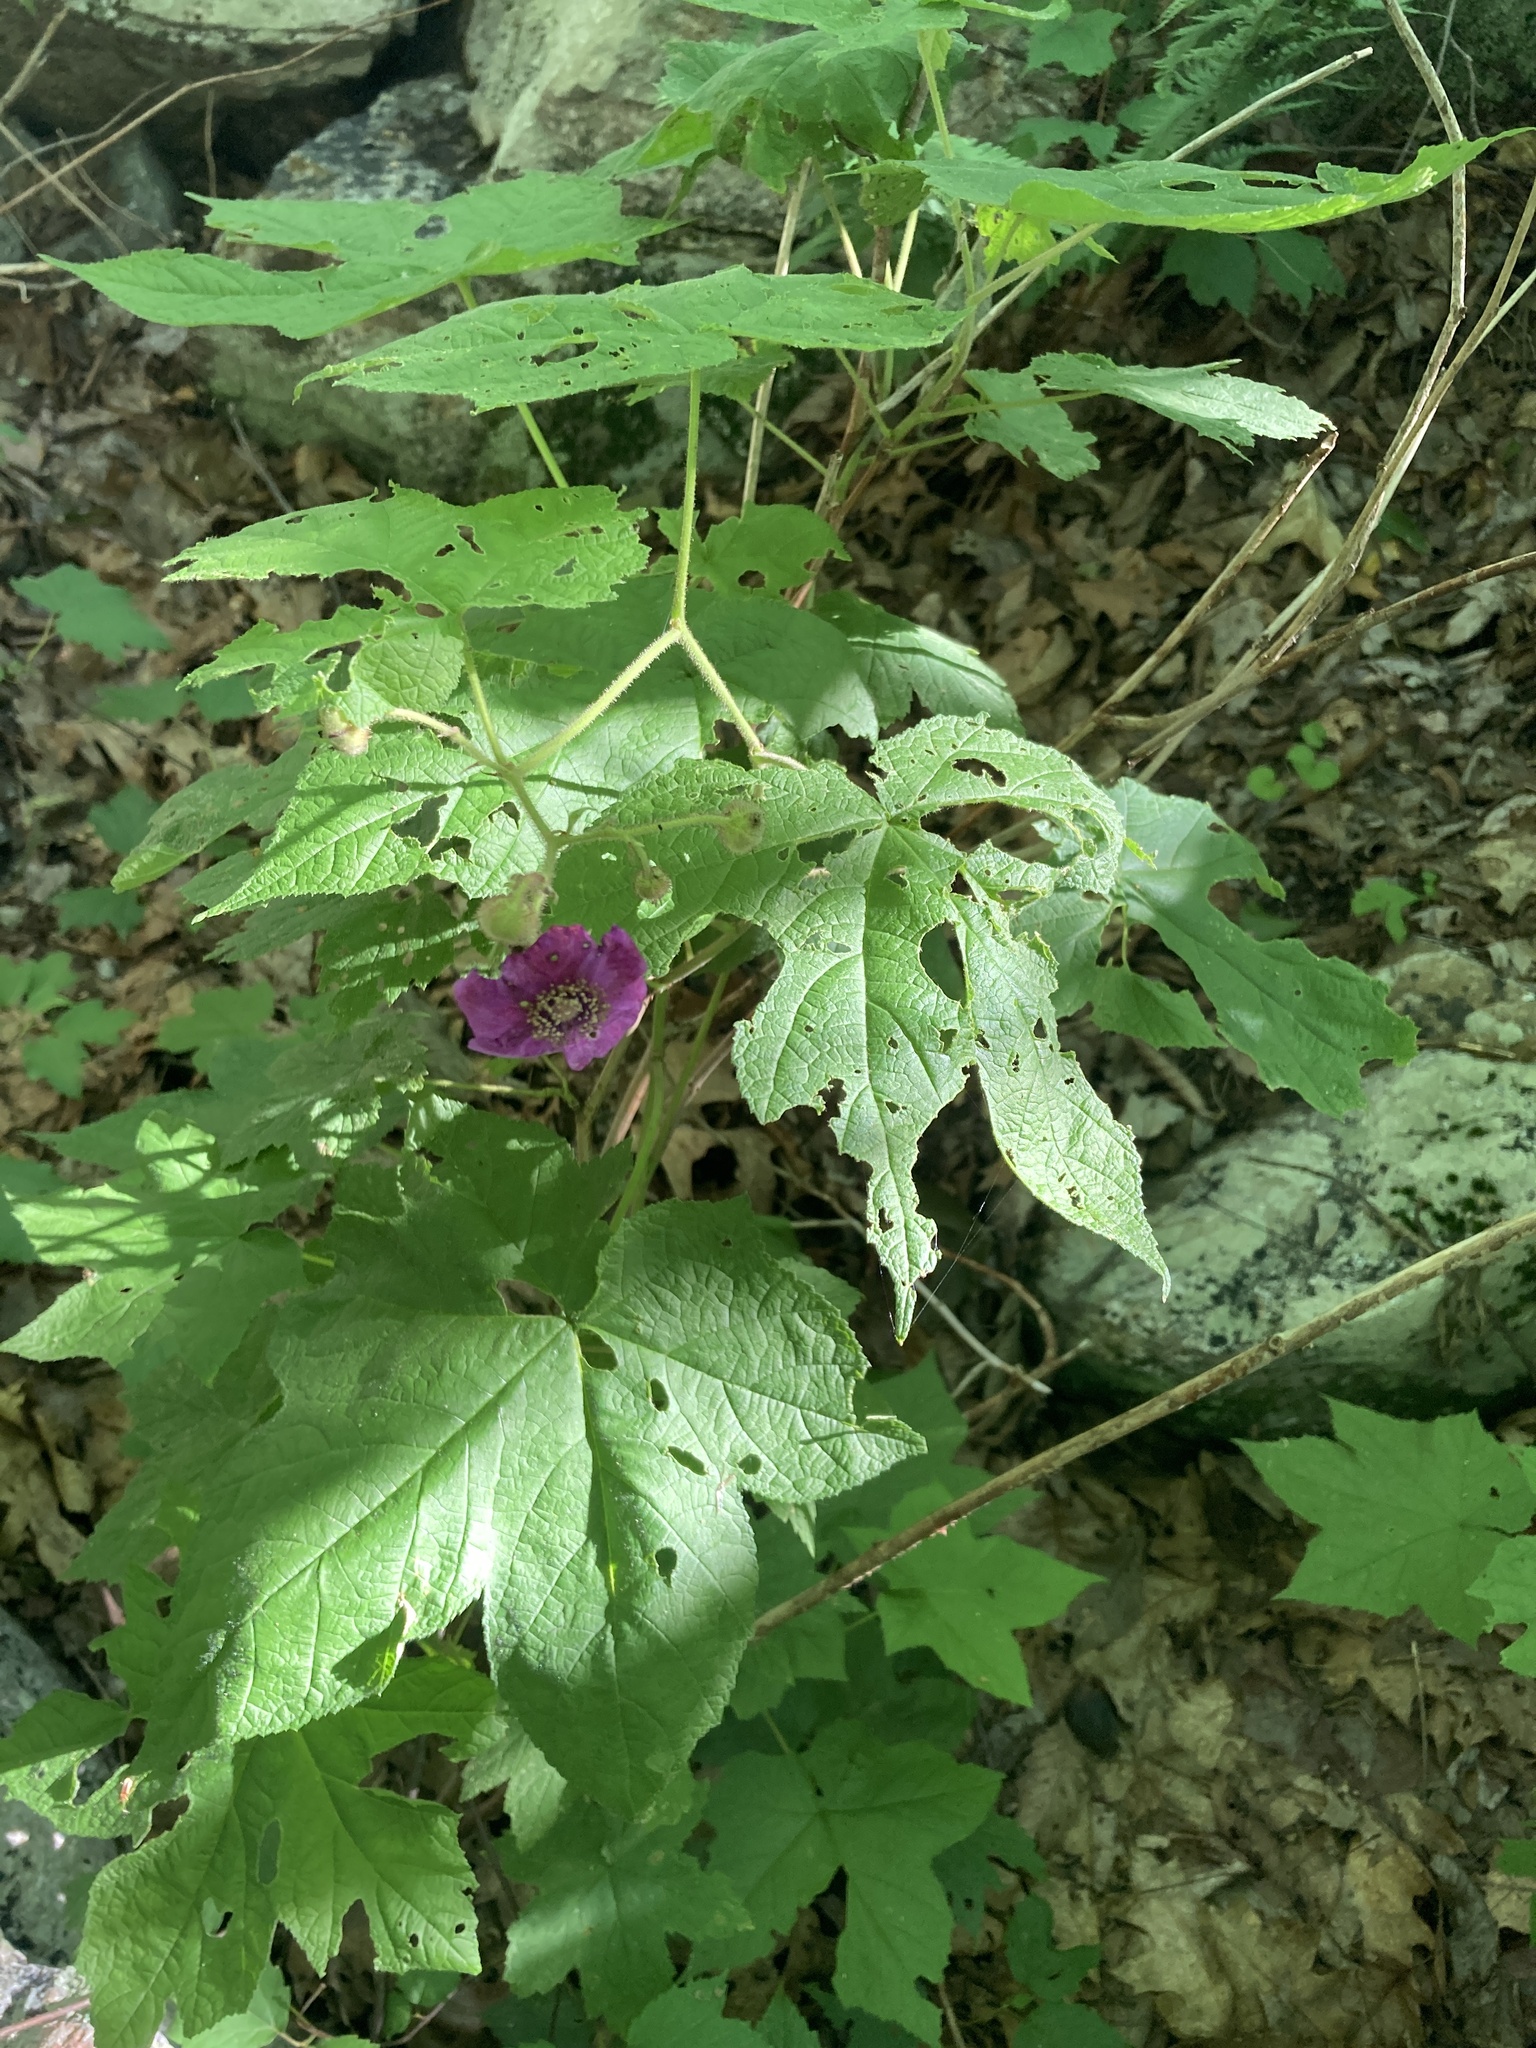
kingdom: Plantae
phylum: Tracheophyta
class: Magnoliopsida
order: Rosales
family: Rosaceae
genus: Rubus
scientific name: Rubus odoratus
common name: Purple-flowered raspberry
